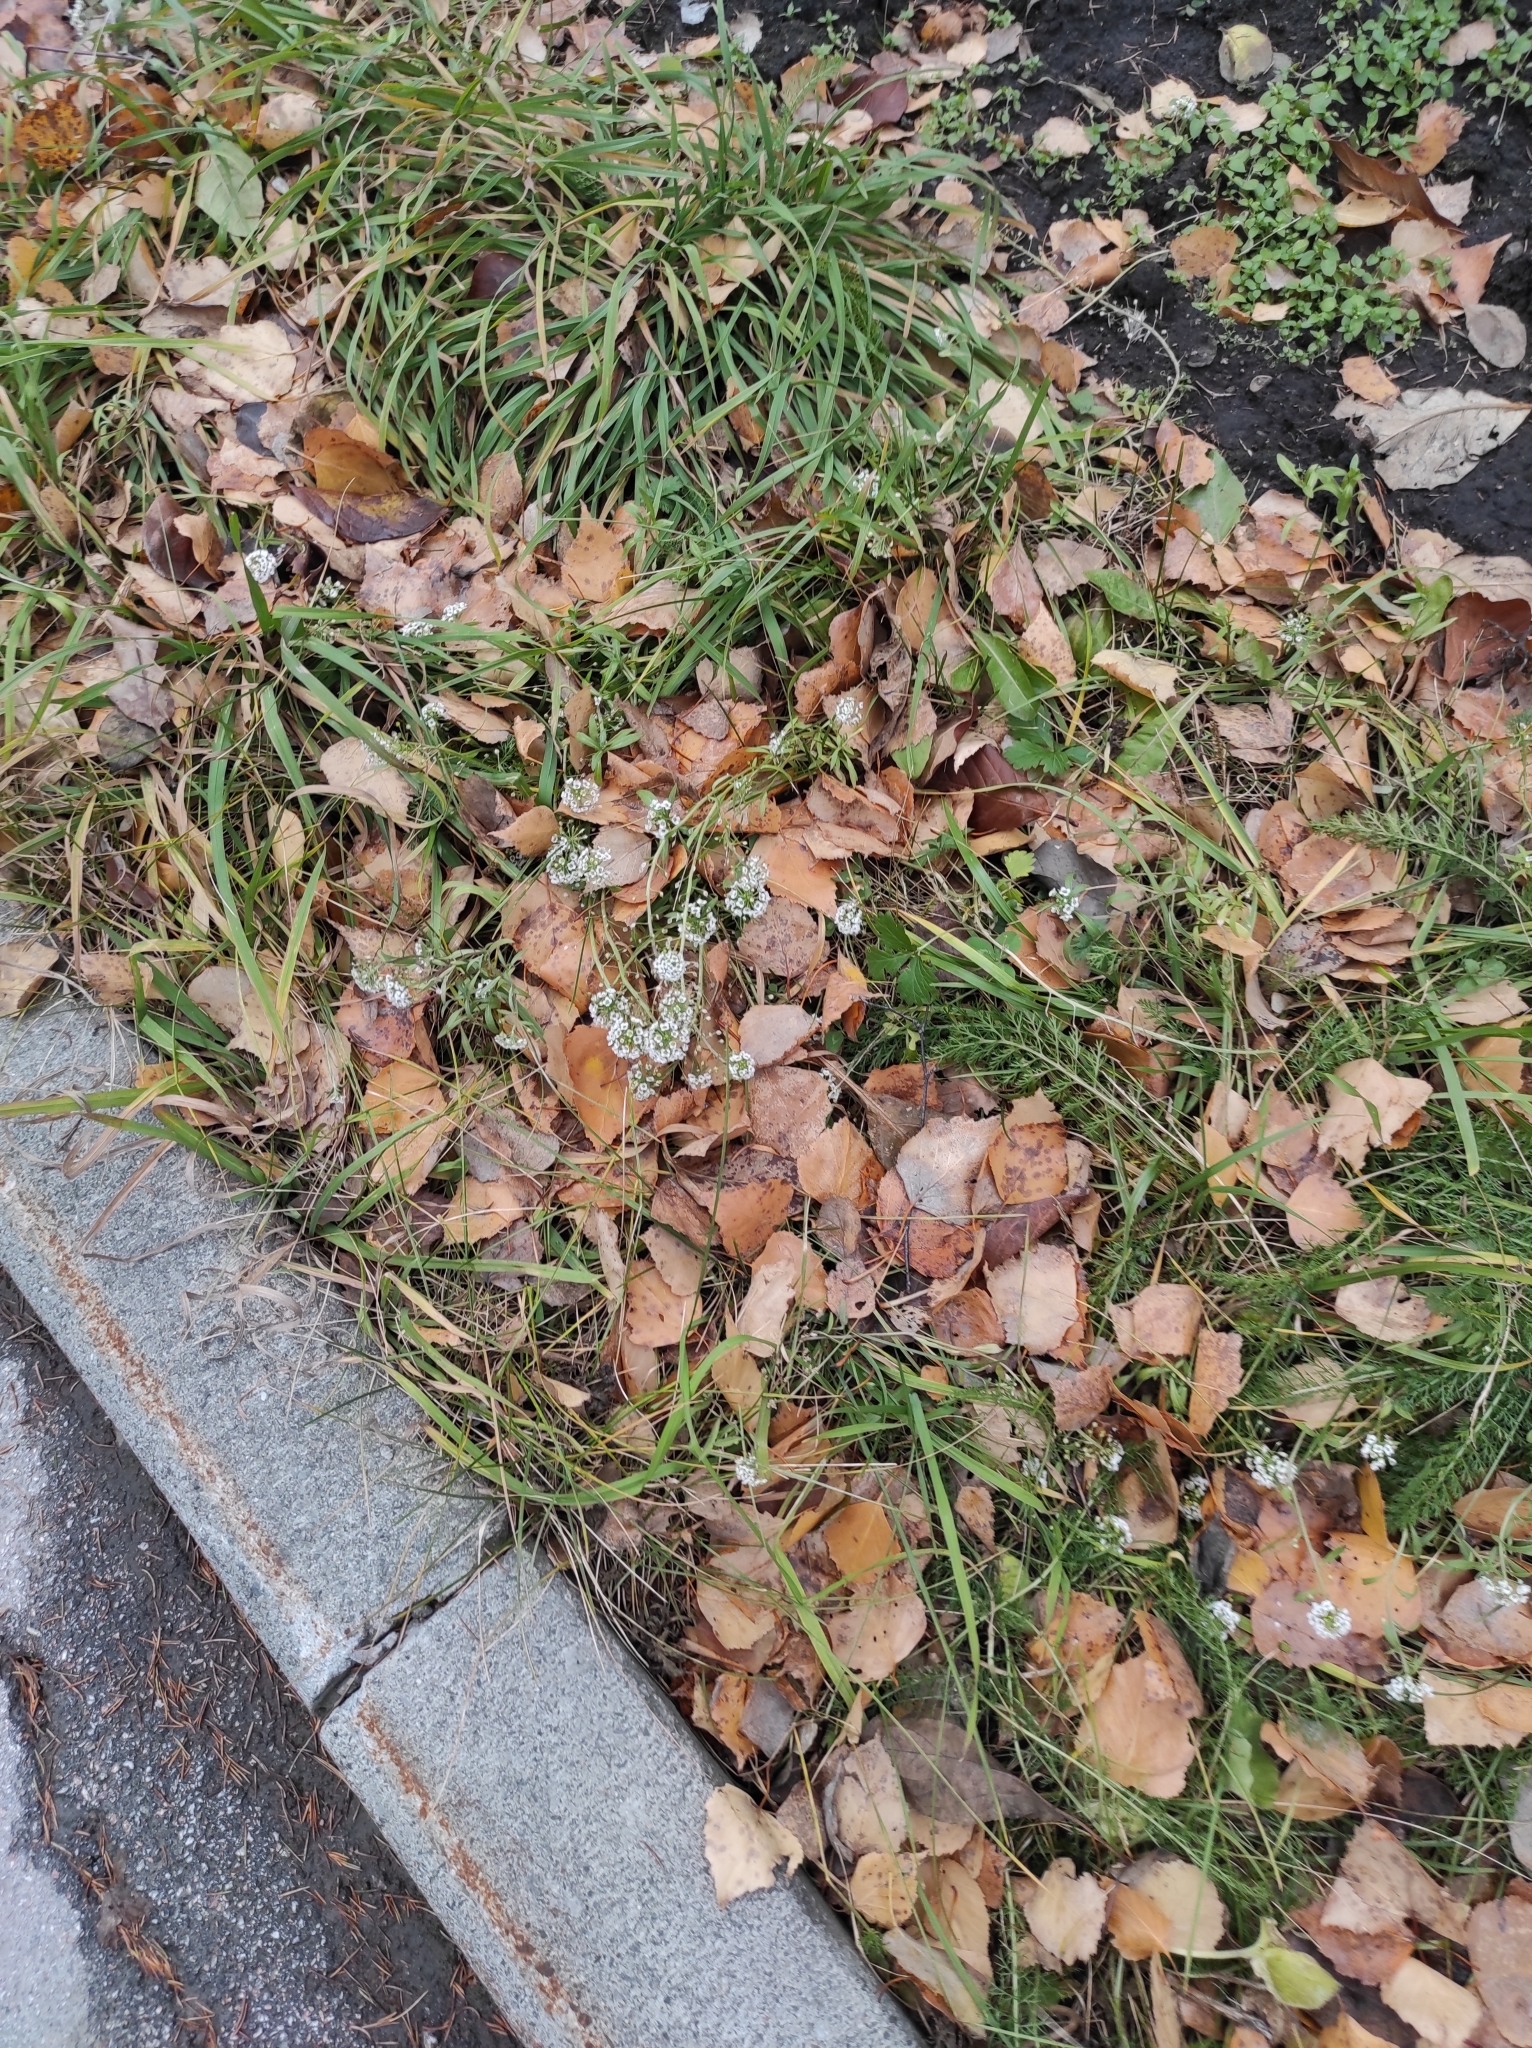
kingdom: Plantae
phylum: Tracheophyta
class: Magnoliopsida
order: Asterales
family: Asteraceae
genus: Achillea
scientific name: Achillea millefolium
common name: Yarrow
